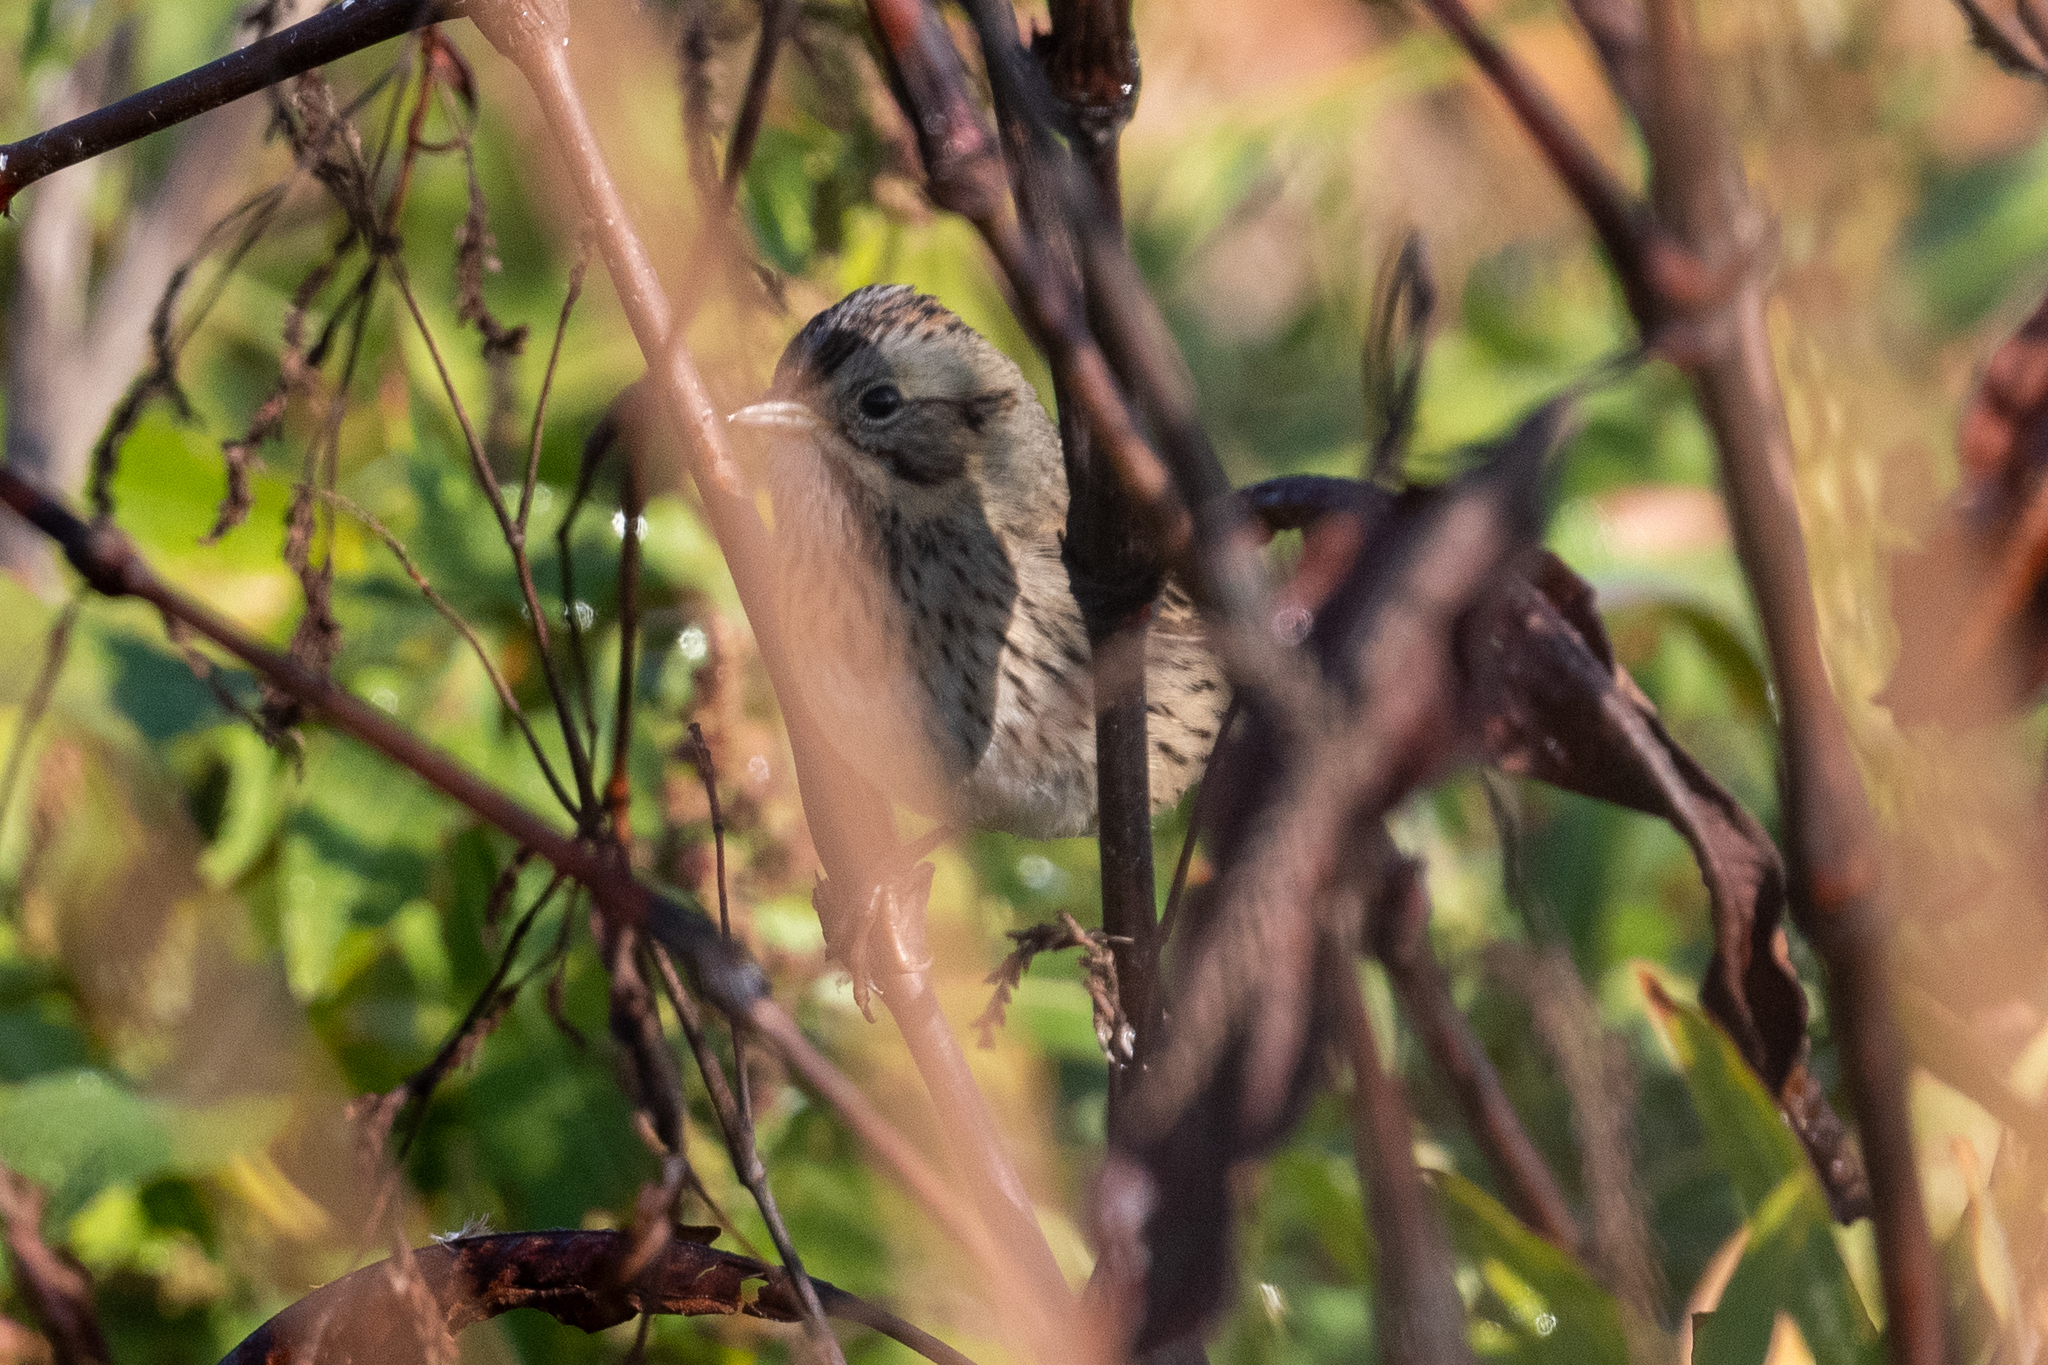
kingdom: Animalia
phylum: Chordata
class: Aves
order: Passeriformes
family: Passerellidae
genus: Melospiza
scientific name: Melospiza lincolnii
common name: Lincoln's sparrow
